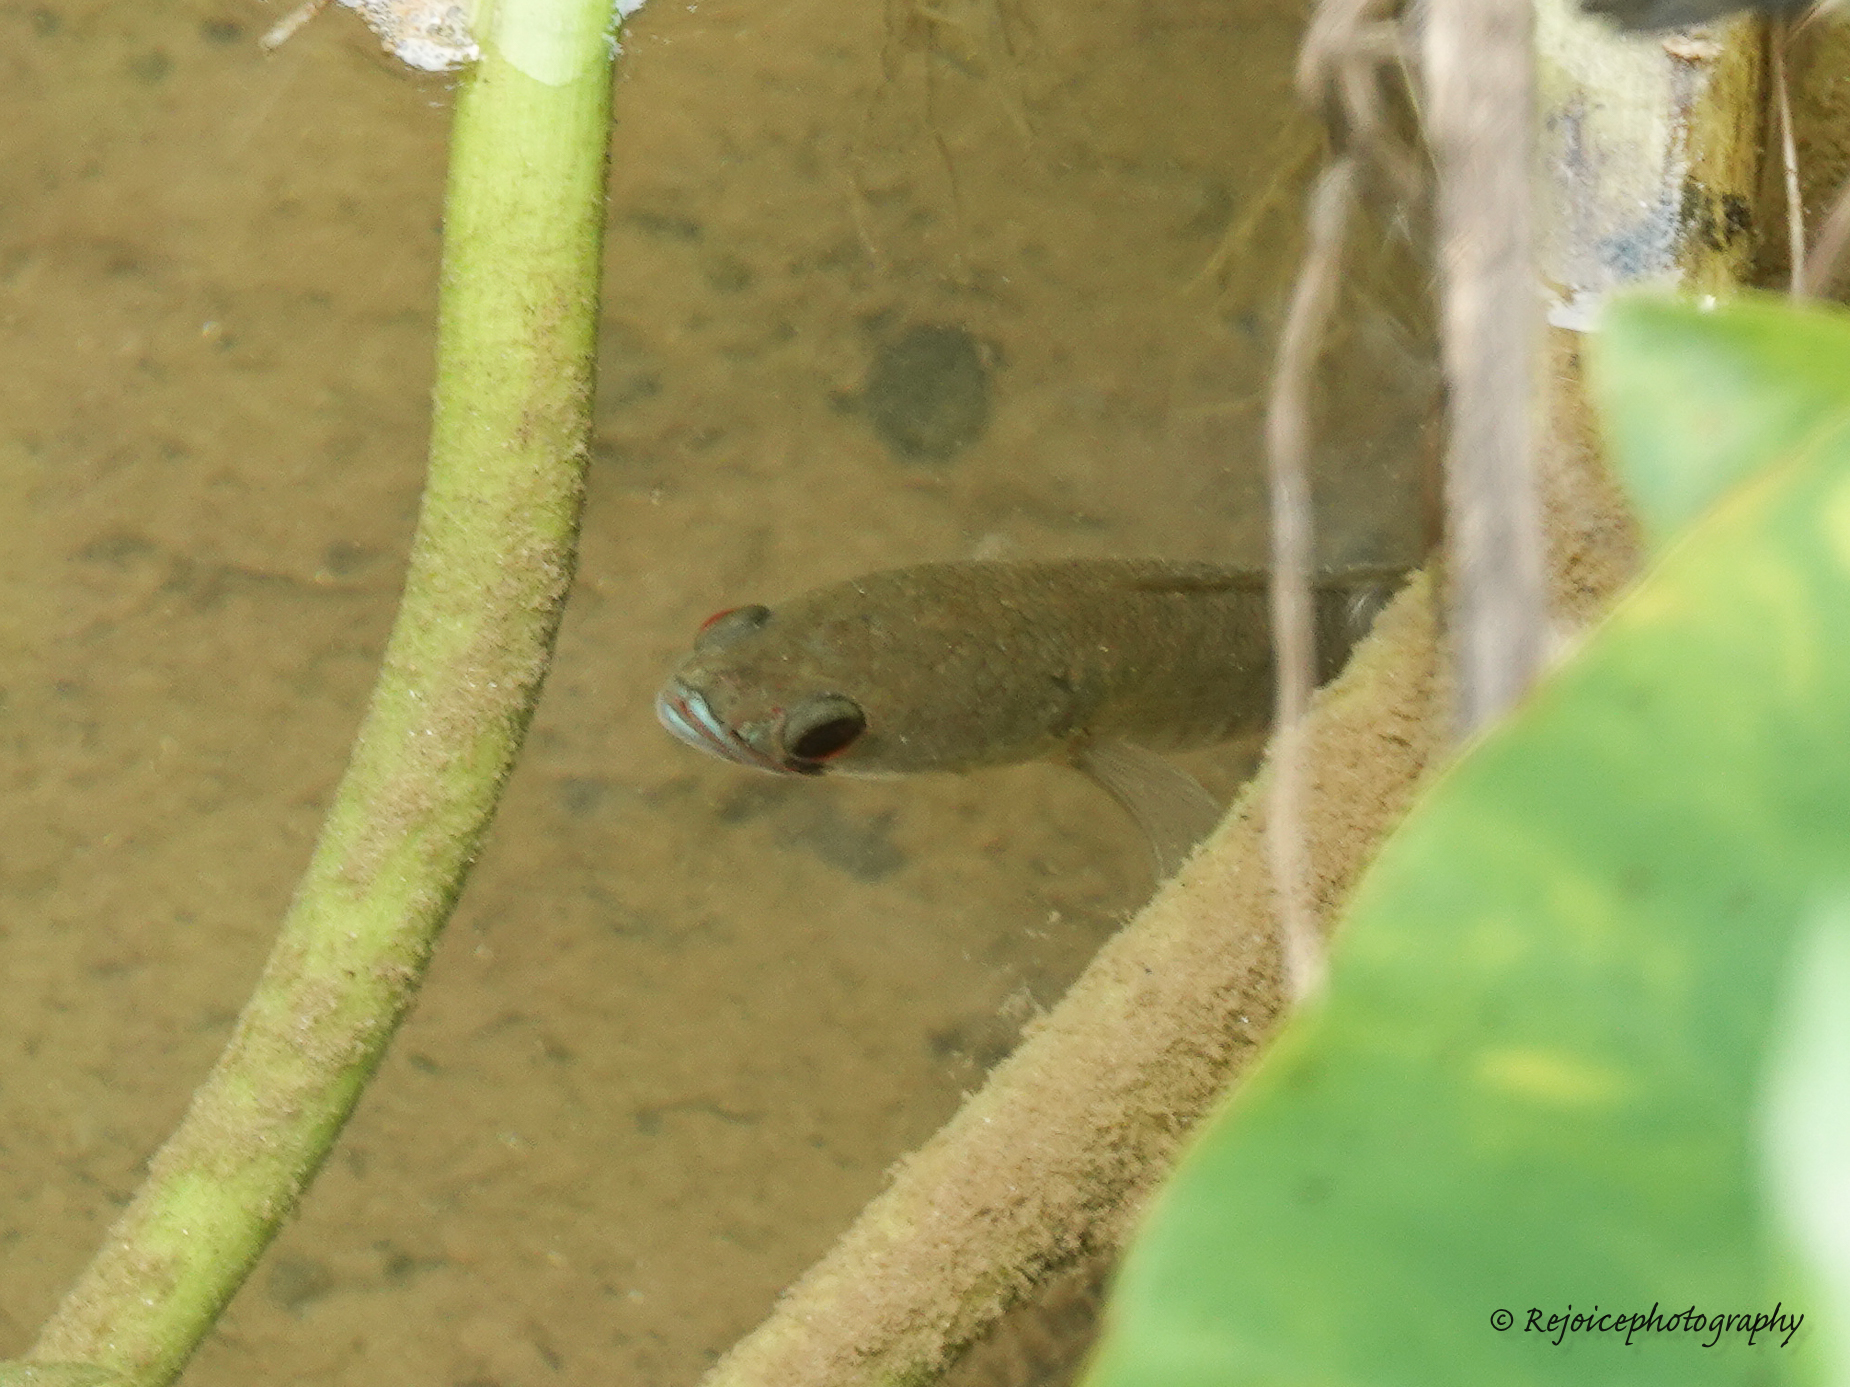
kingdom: Animalia
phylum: Chordata
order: Perciformes
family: Channidae
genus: Channa
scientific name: Channa striata
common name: Striped snakehead
